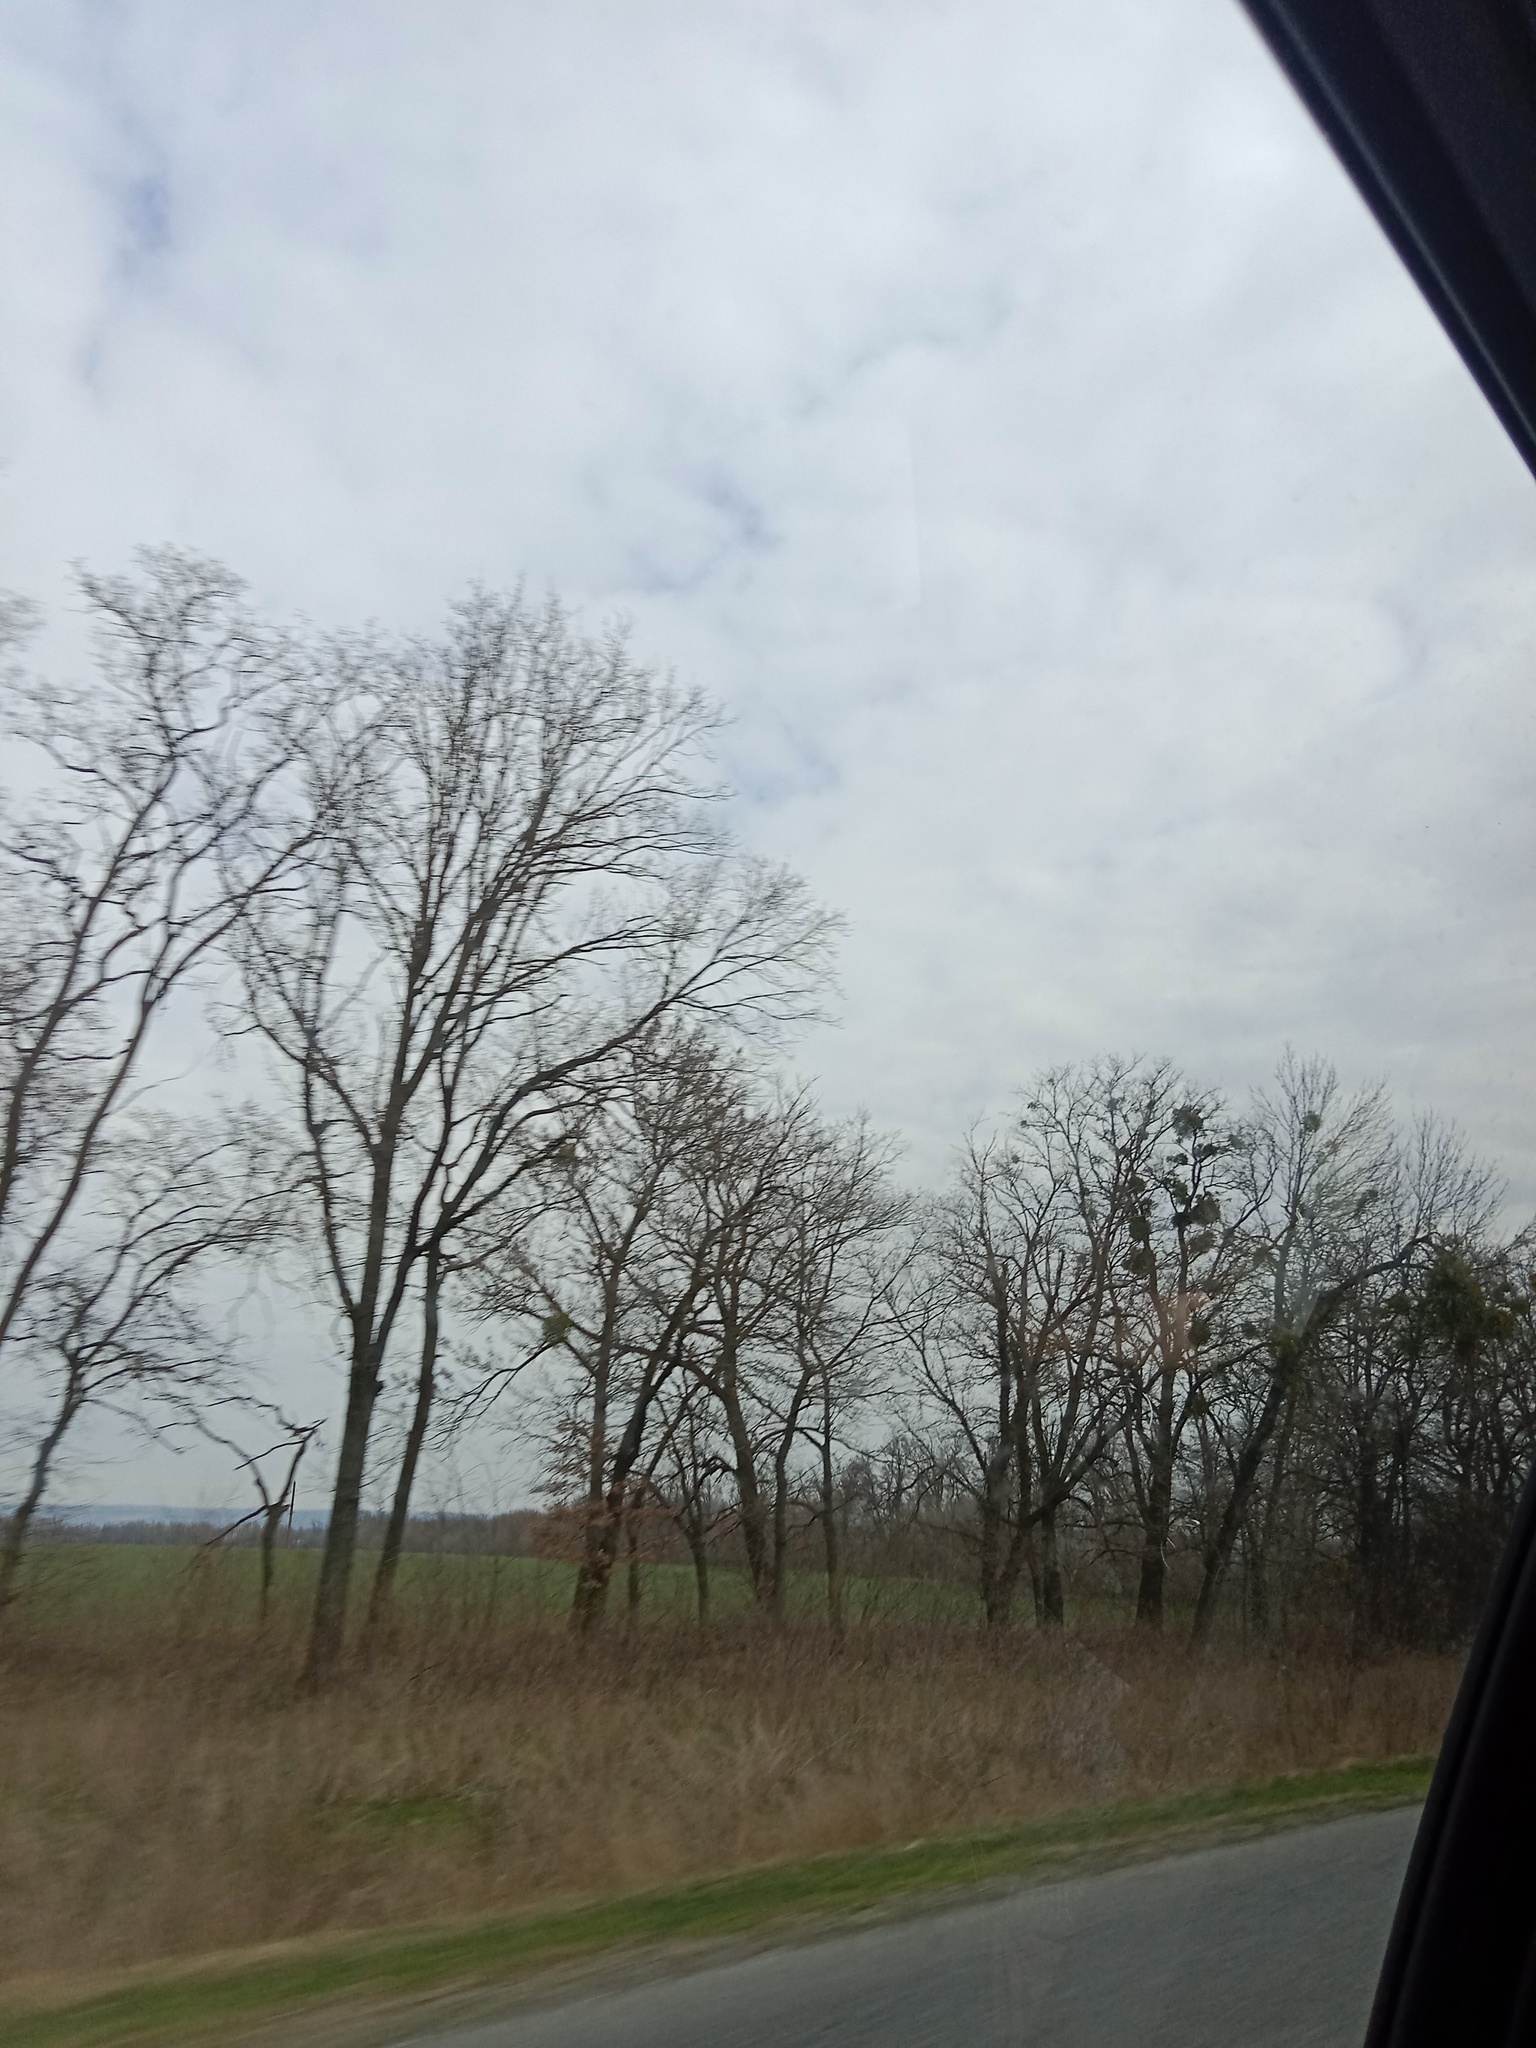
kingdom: Plantae
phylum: Tracheophyta
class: Magnoliopsida
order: Santalales
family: Viscaceae
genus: Viscum
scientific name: Viscum album
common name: Mistletoe
